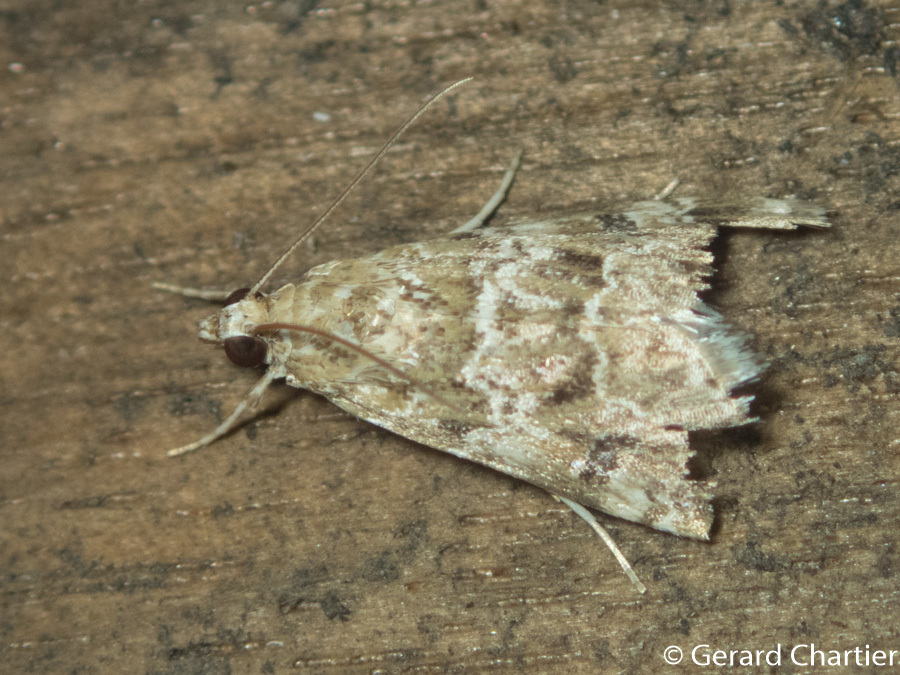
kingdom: Animalia
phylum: Arthropoda
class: Insecta
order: Lepidoptera
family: Crambidae
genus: Hellula
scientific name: Hellula undalis
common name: Cabbage webworm
